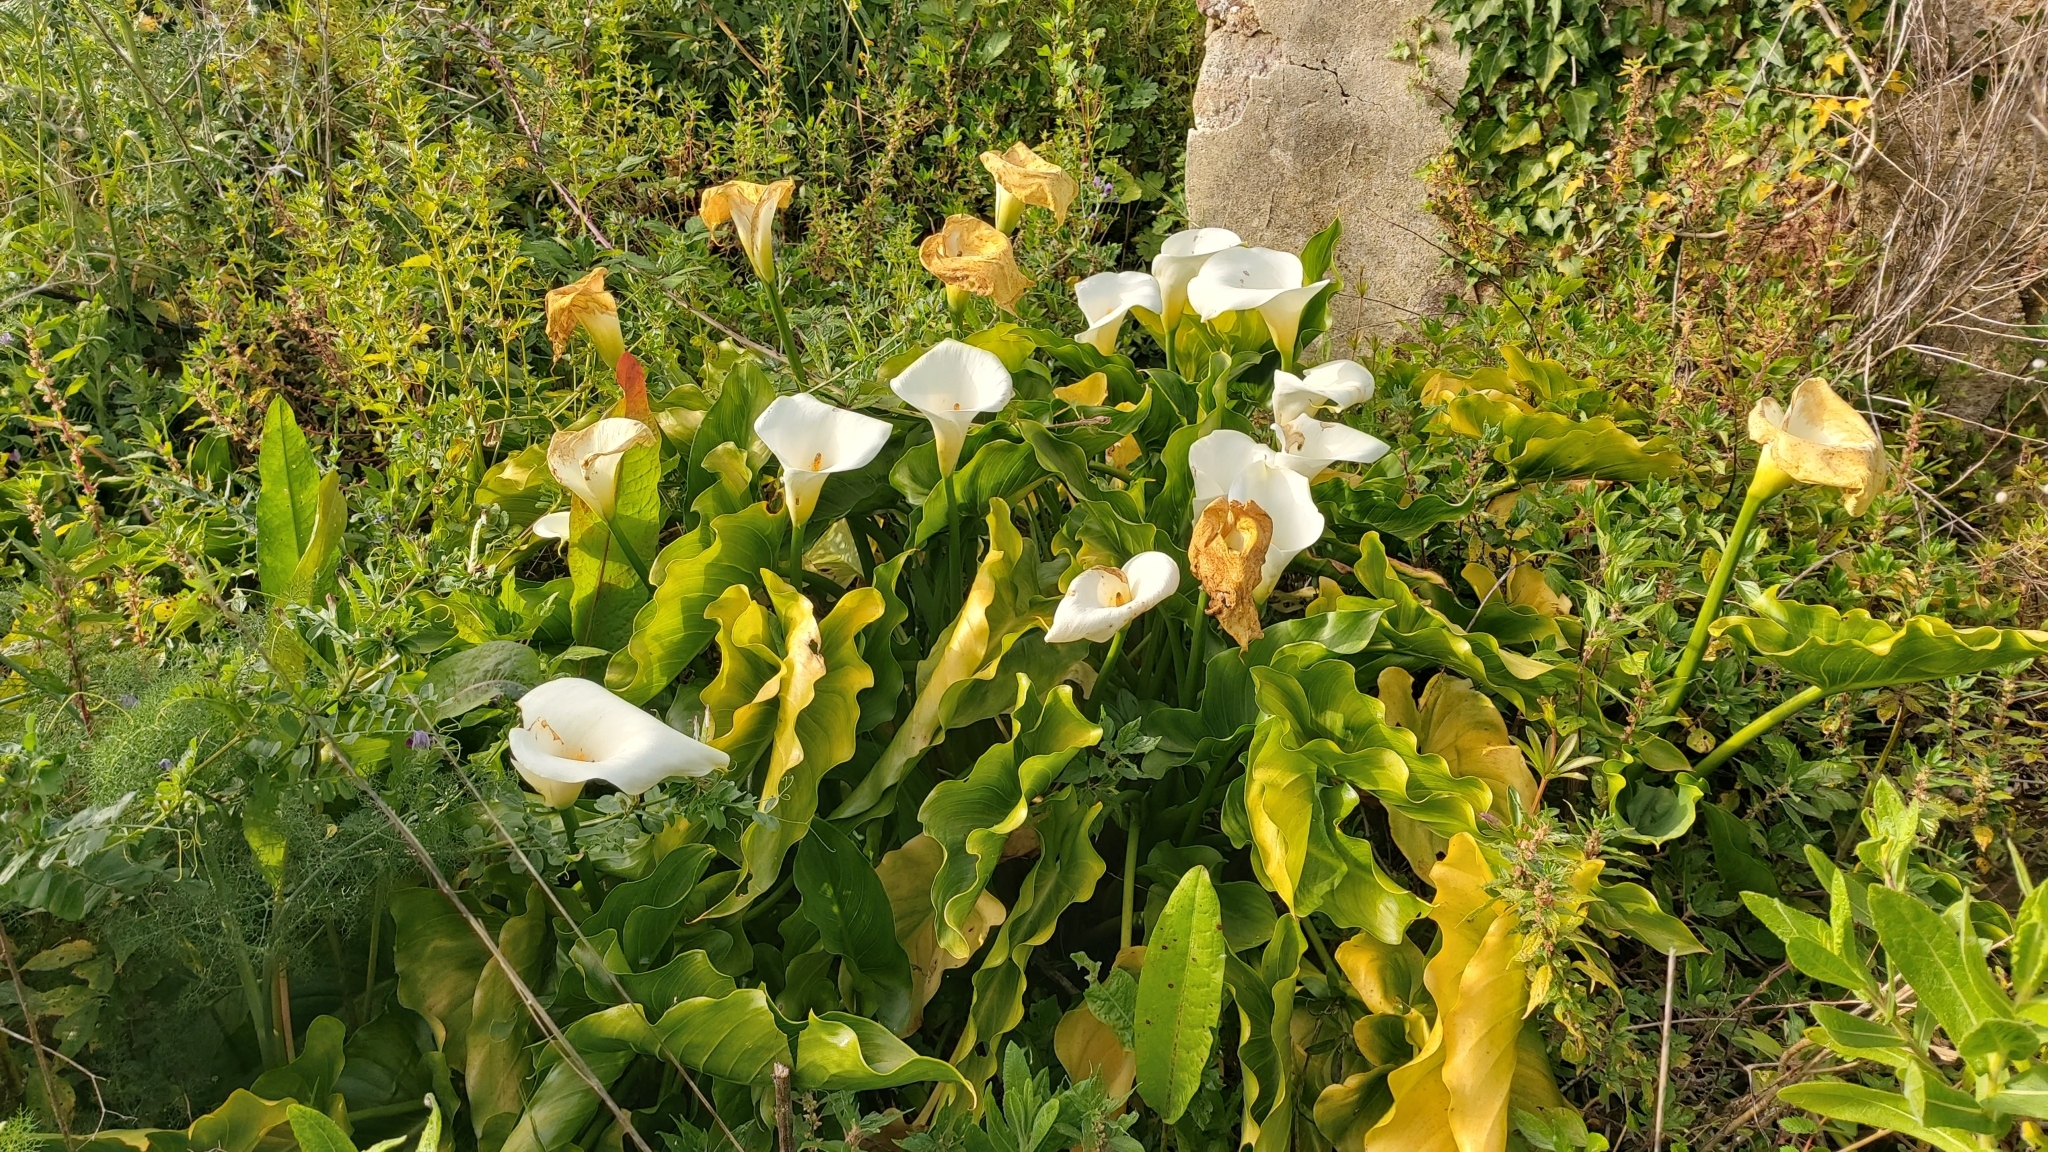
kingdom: Plantae
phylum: Tracheophyta
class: Liliopsida
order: Alismatales
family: Araceae
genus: Zantedeschia
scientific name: Zantedeschia aethiopica
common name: Altar-lily
